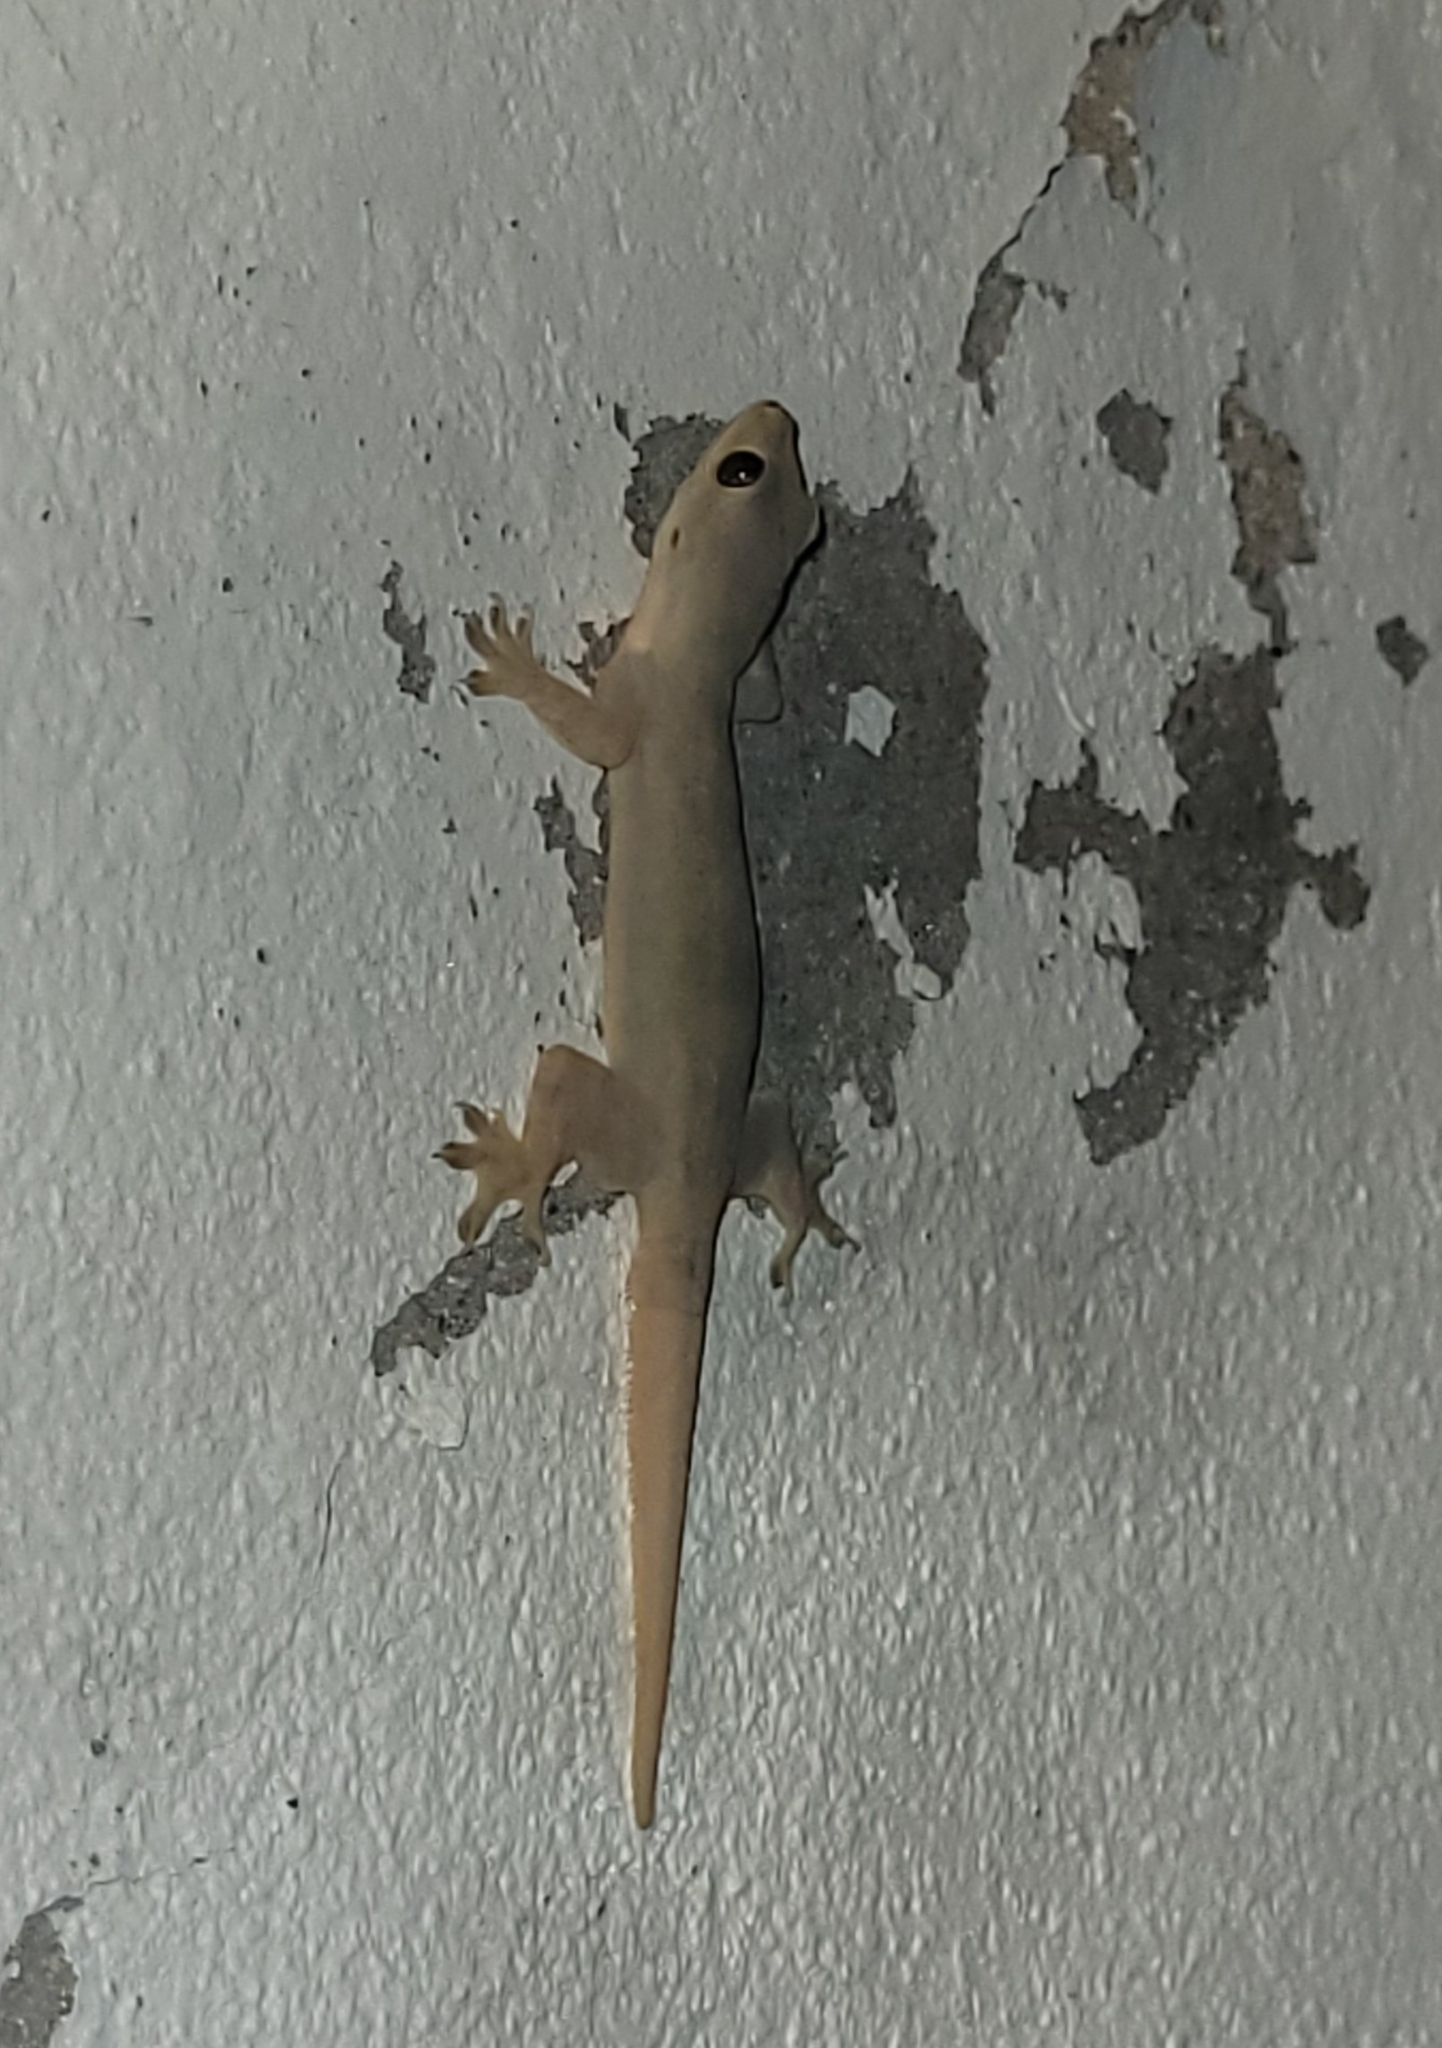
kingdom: Animalia
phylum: Chordata
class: Squamata
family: Gekkonidae
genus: Hemidactylus
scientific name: Hemidactylus platyurus
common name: Flat-tailed house gecko
